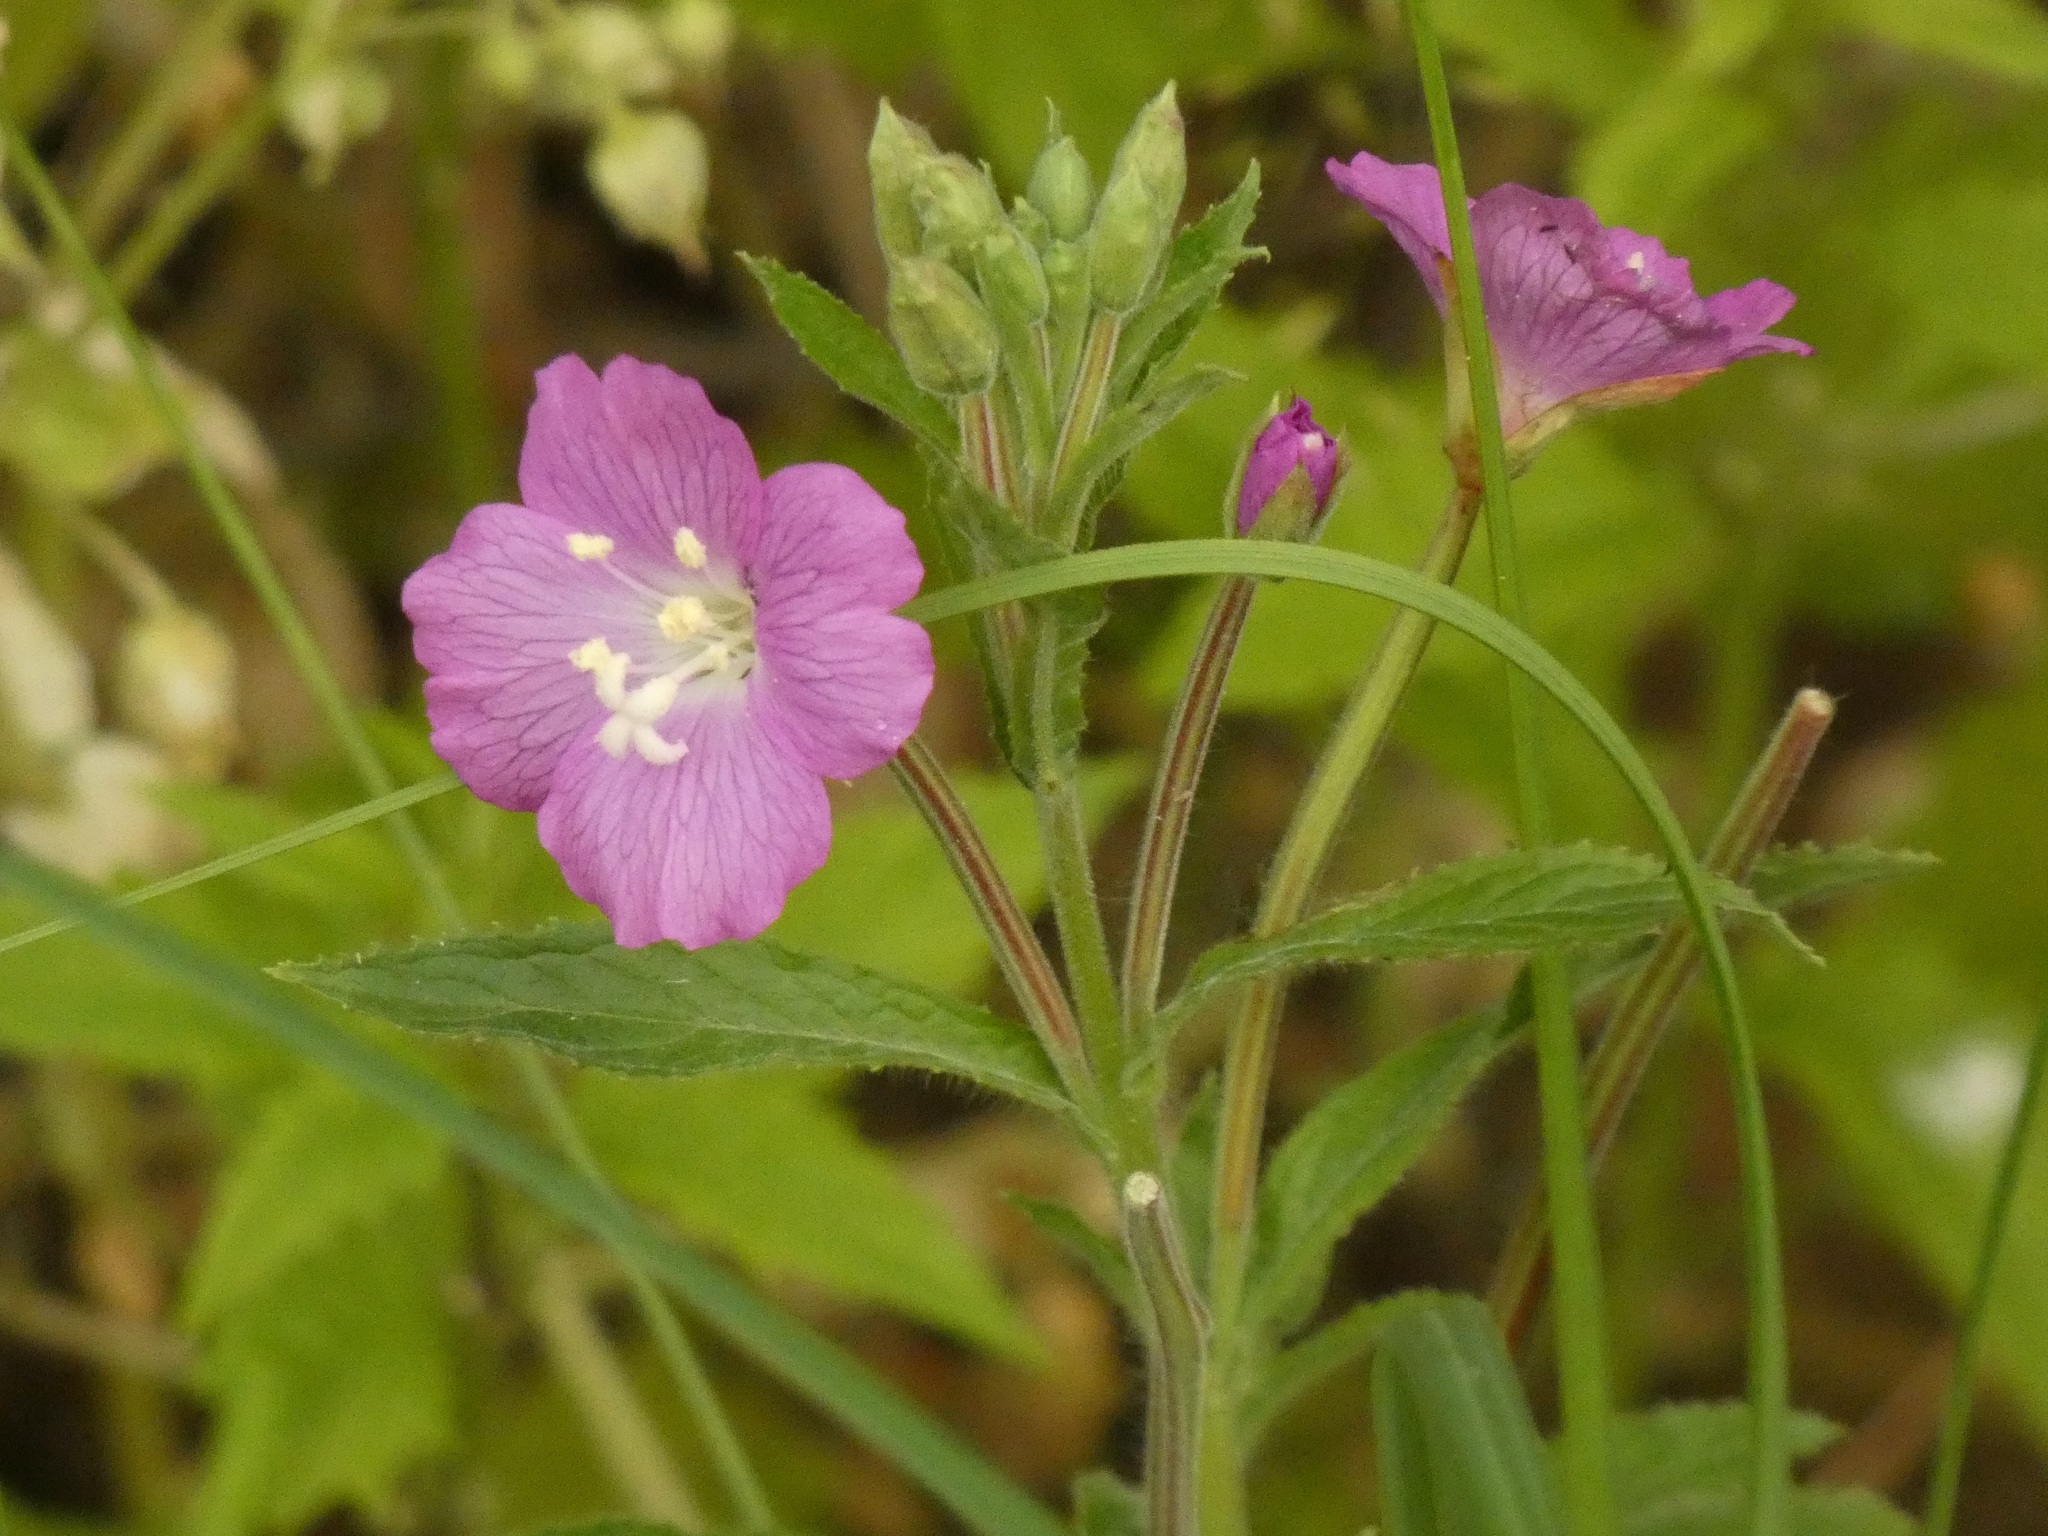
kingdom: Plantae
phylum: Tracheophyta
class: Magnoliopsida
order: Myrtales
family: Onagraceae
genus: Epilobium
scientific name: Epilobium hirsutum
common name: Great willowherb
